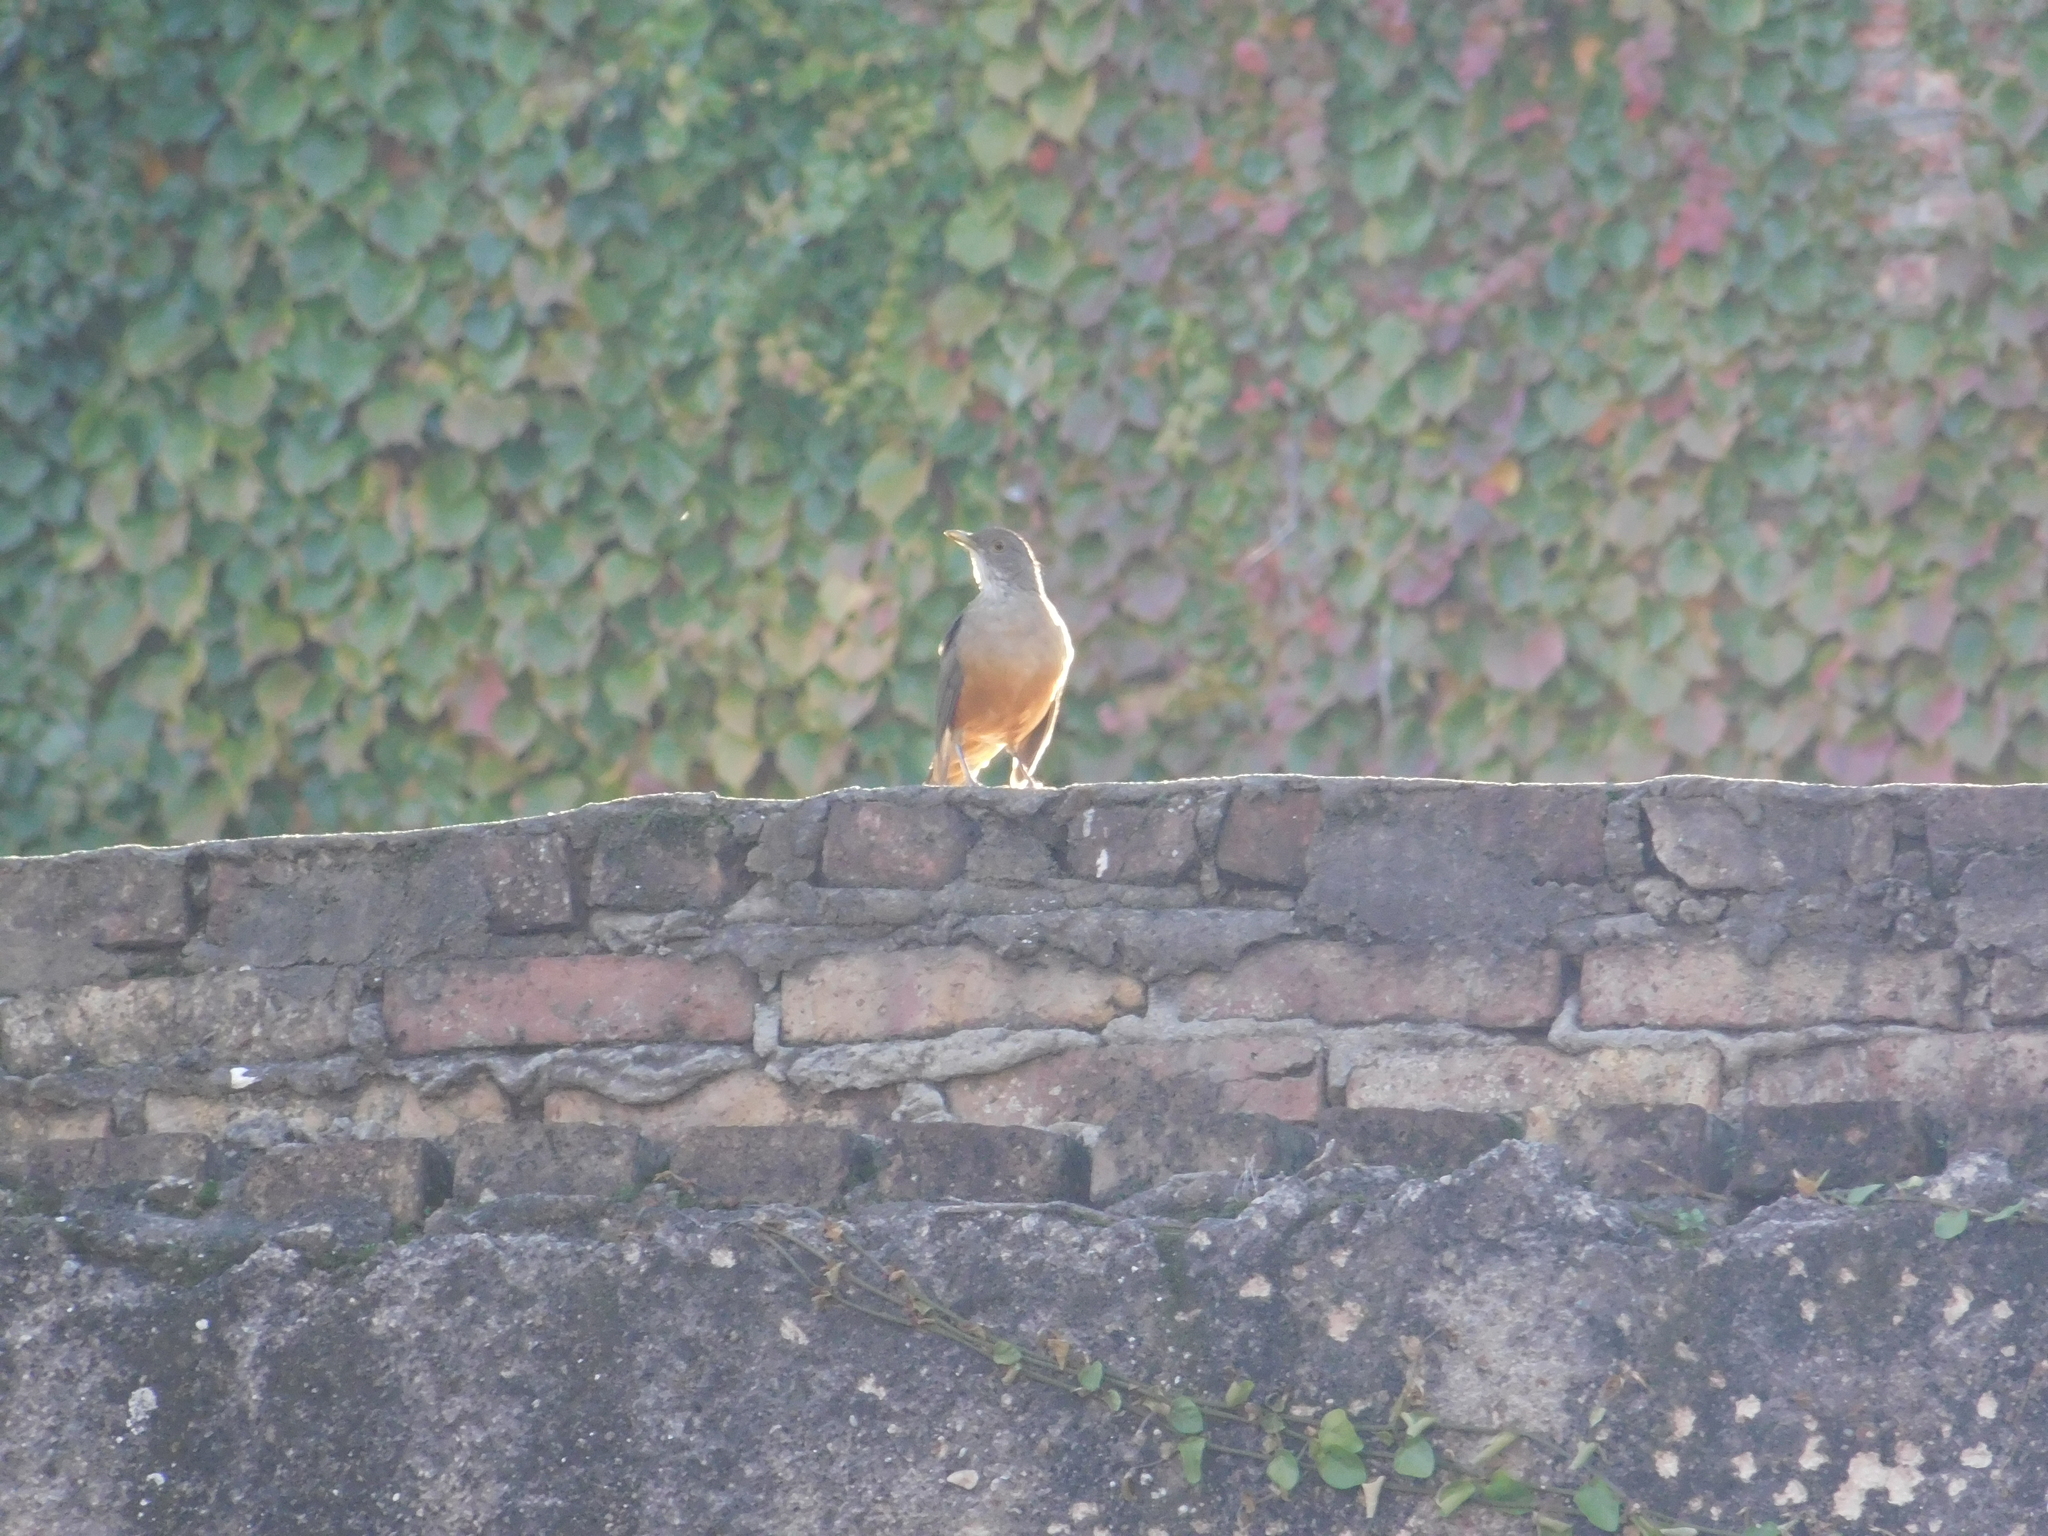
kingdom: Animalia
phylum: Chordata
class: Aves
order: Passeriformes
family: Turdidae
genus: Turdus
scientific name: Turdus rufiventris
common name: Rufous-bellied thrush
